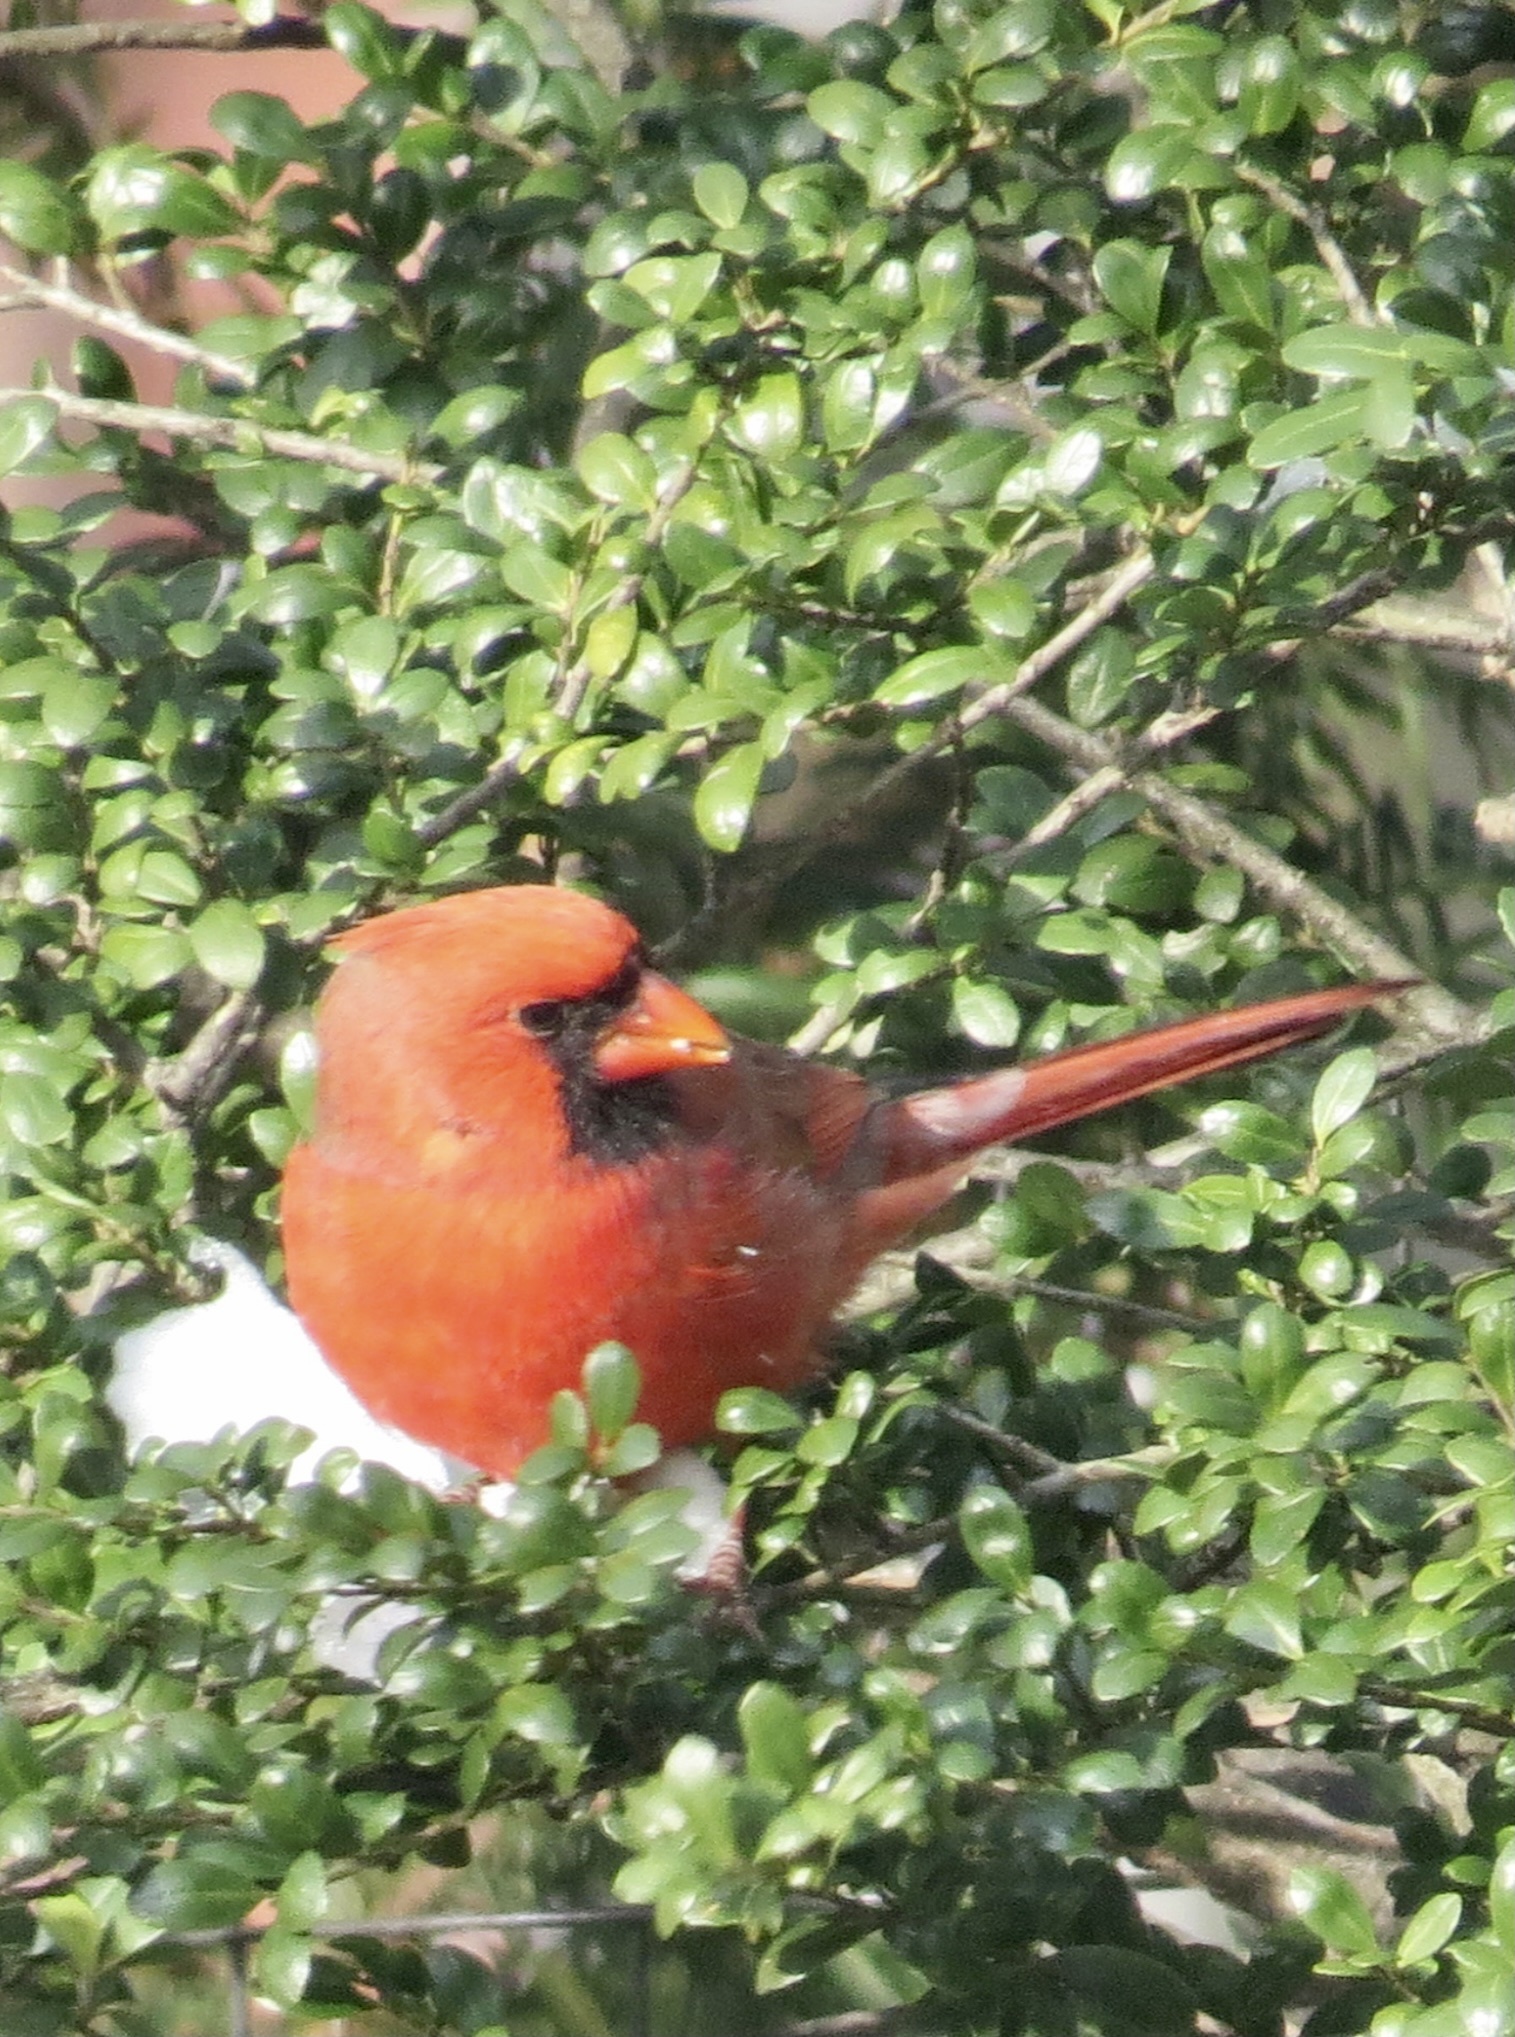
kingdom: Animalia
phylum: Chordata
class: Aves
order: Passeriformes
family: Cardinalidae
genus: Cardinalis
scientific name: Cardinalis cardinalis
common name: Northern cardinal
